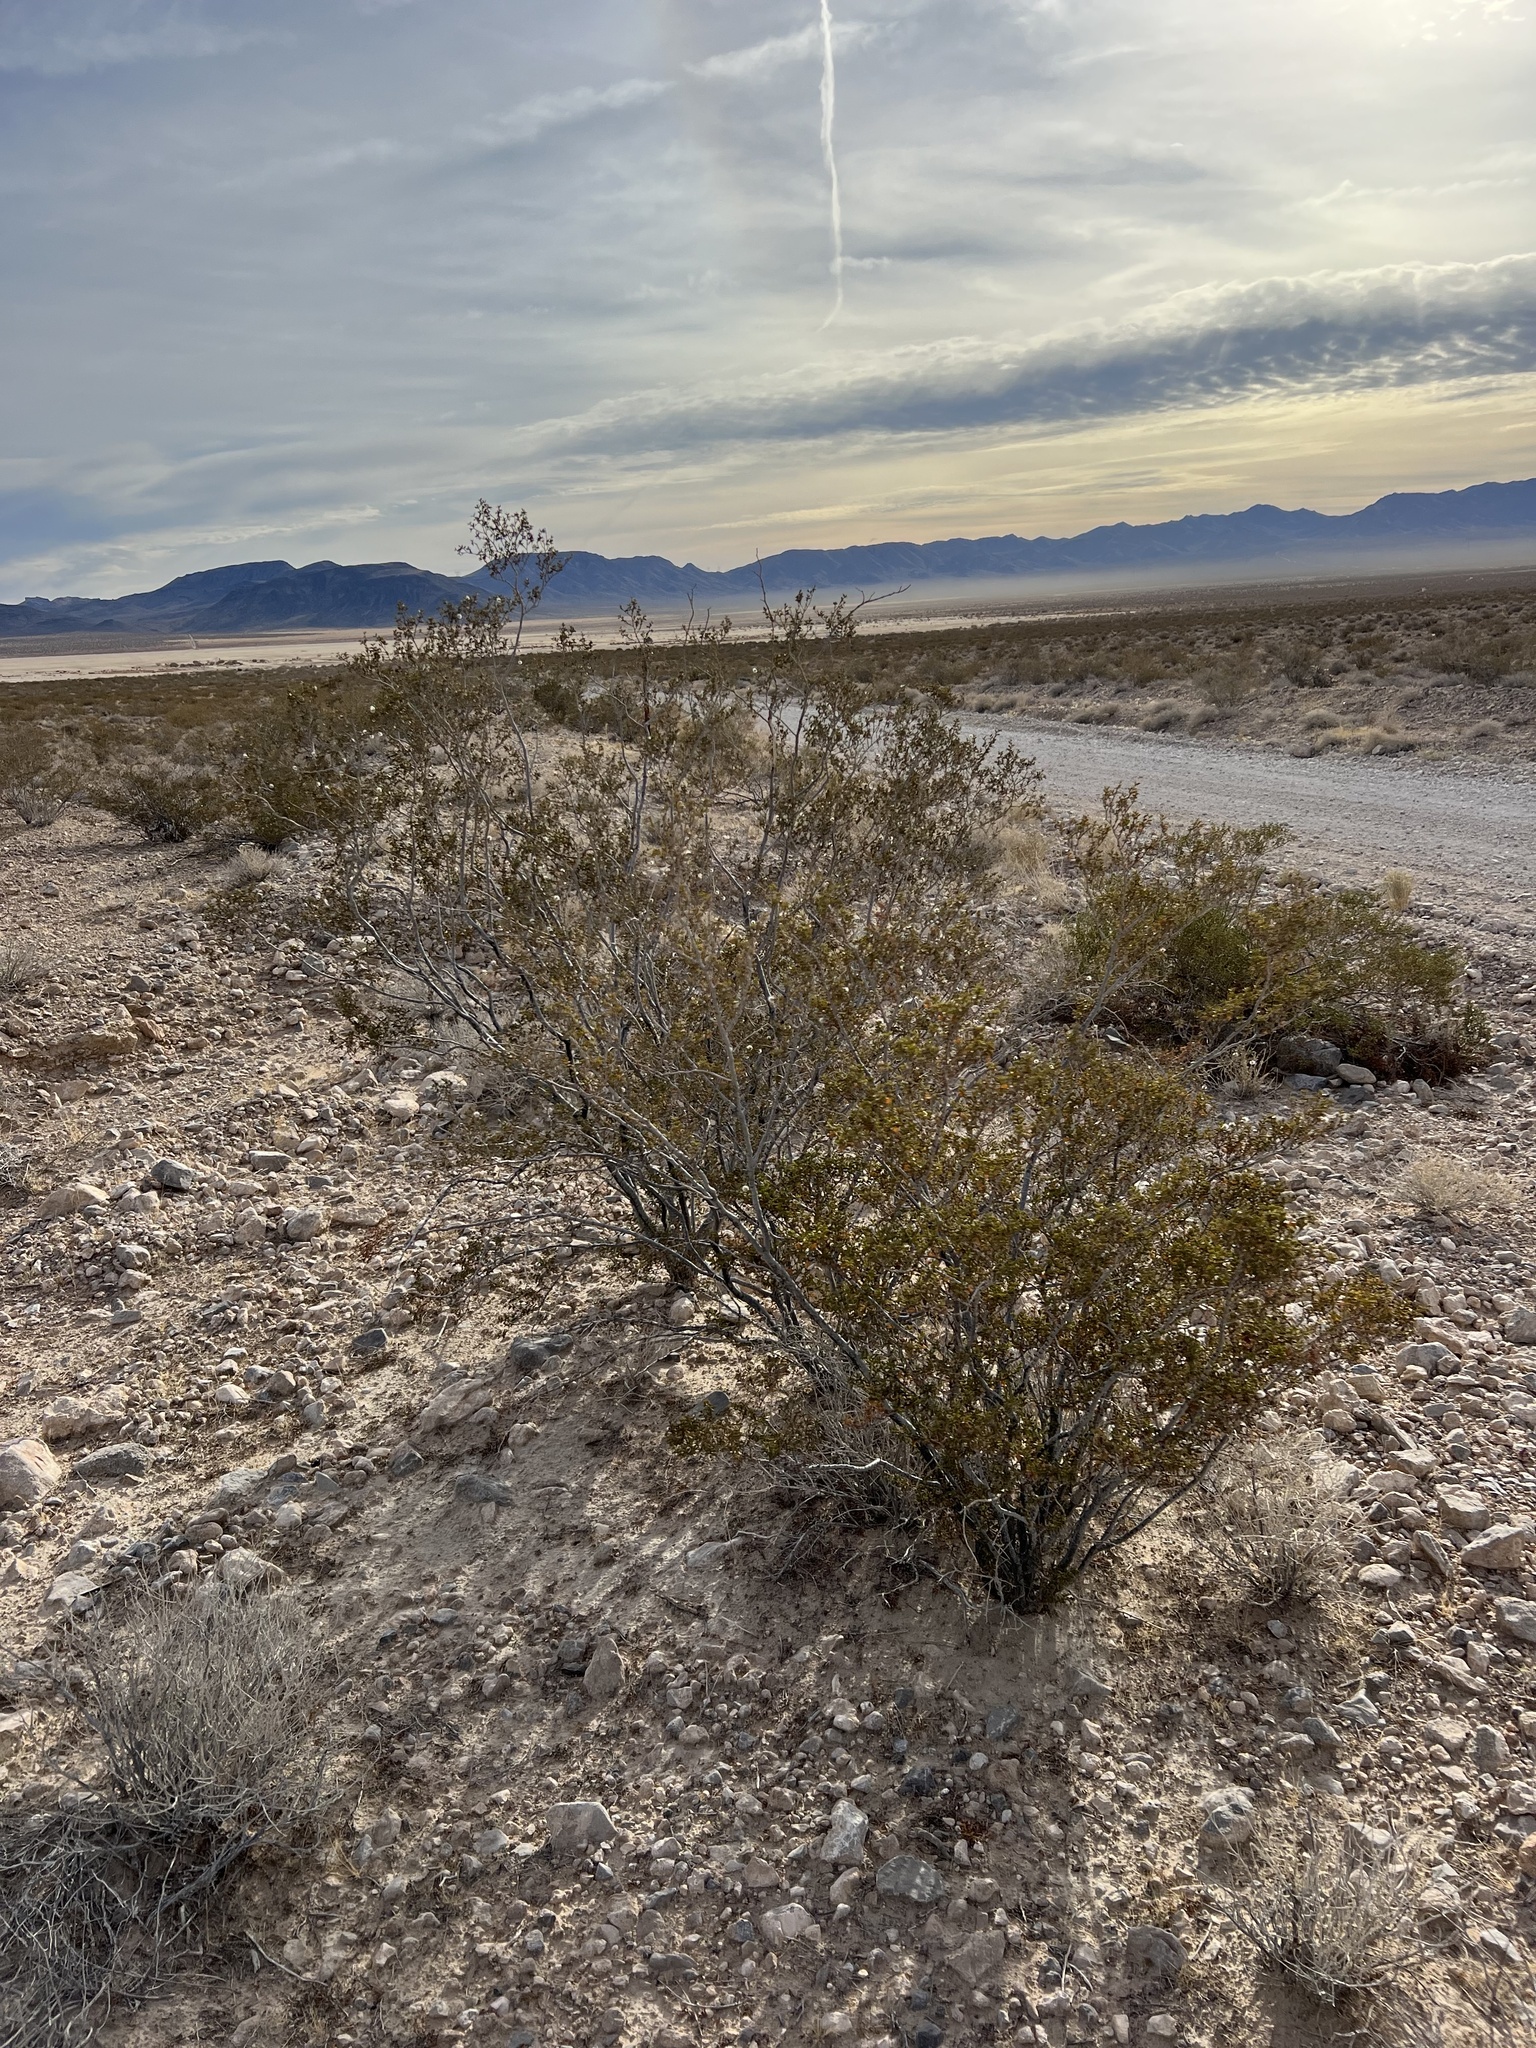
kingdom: Plantae
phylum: Tracheophyta
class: Magnoliopsida
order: Zygophyllales
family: Zygophyllaceae
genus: Larrea
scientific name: Larrea tridentata
